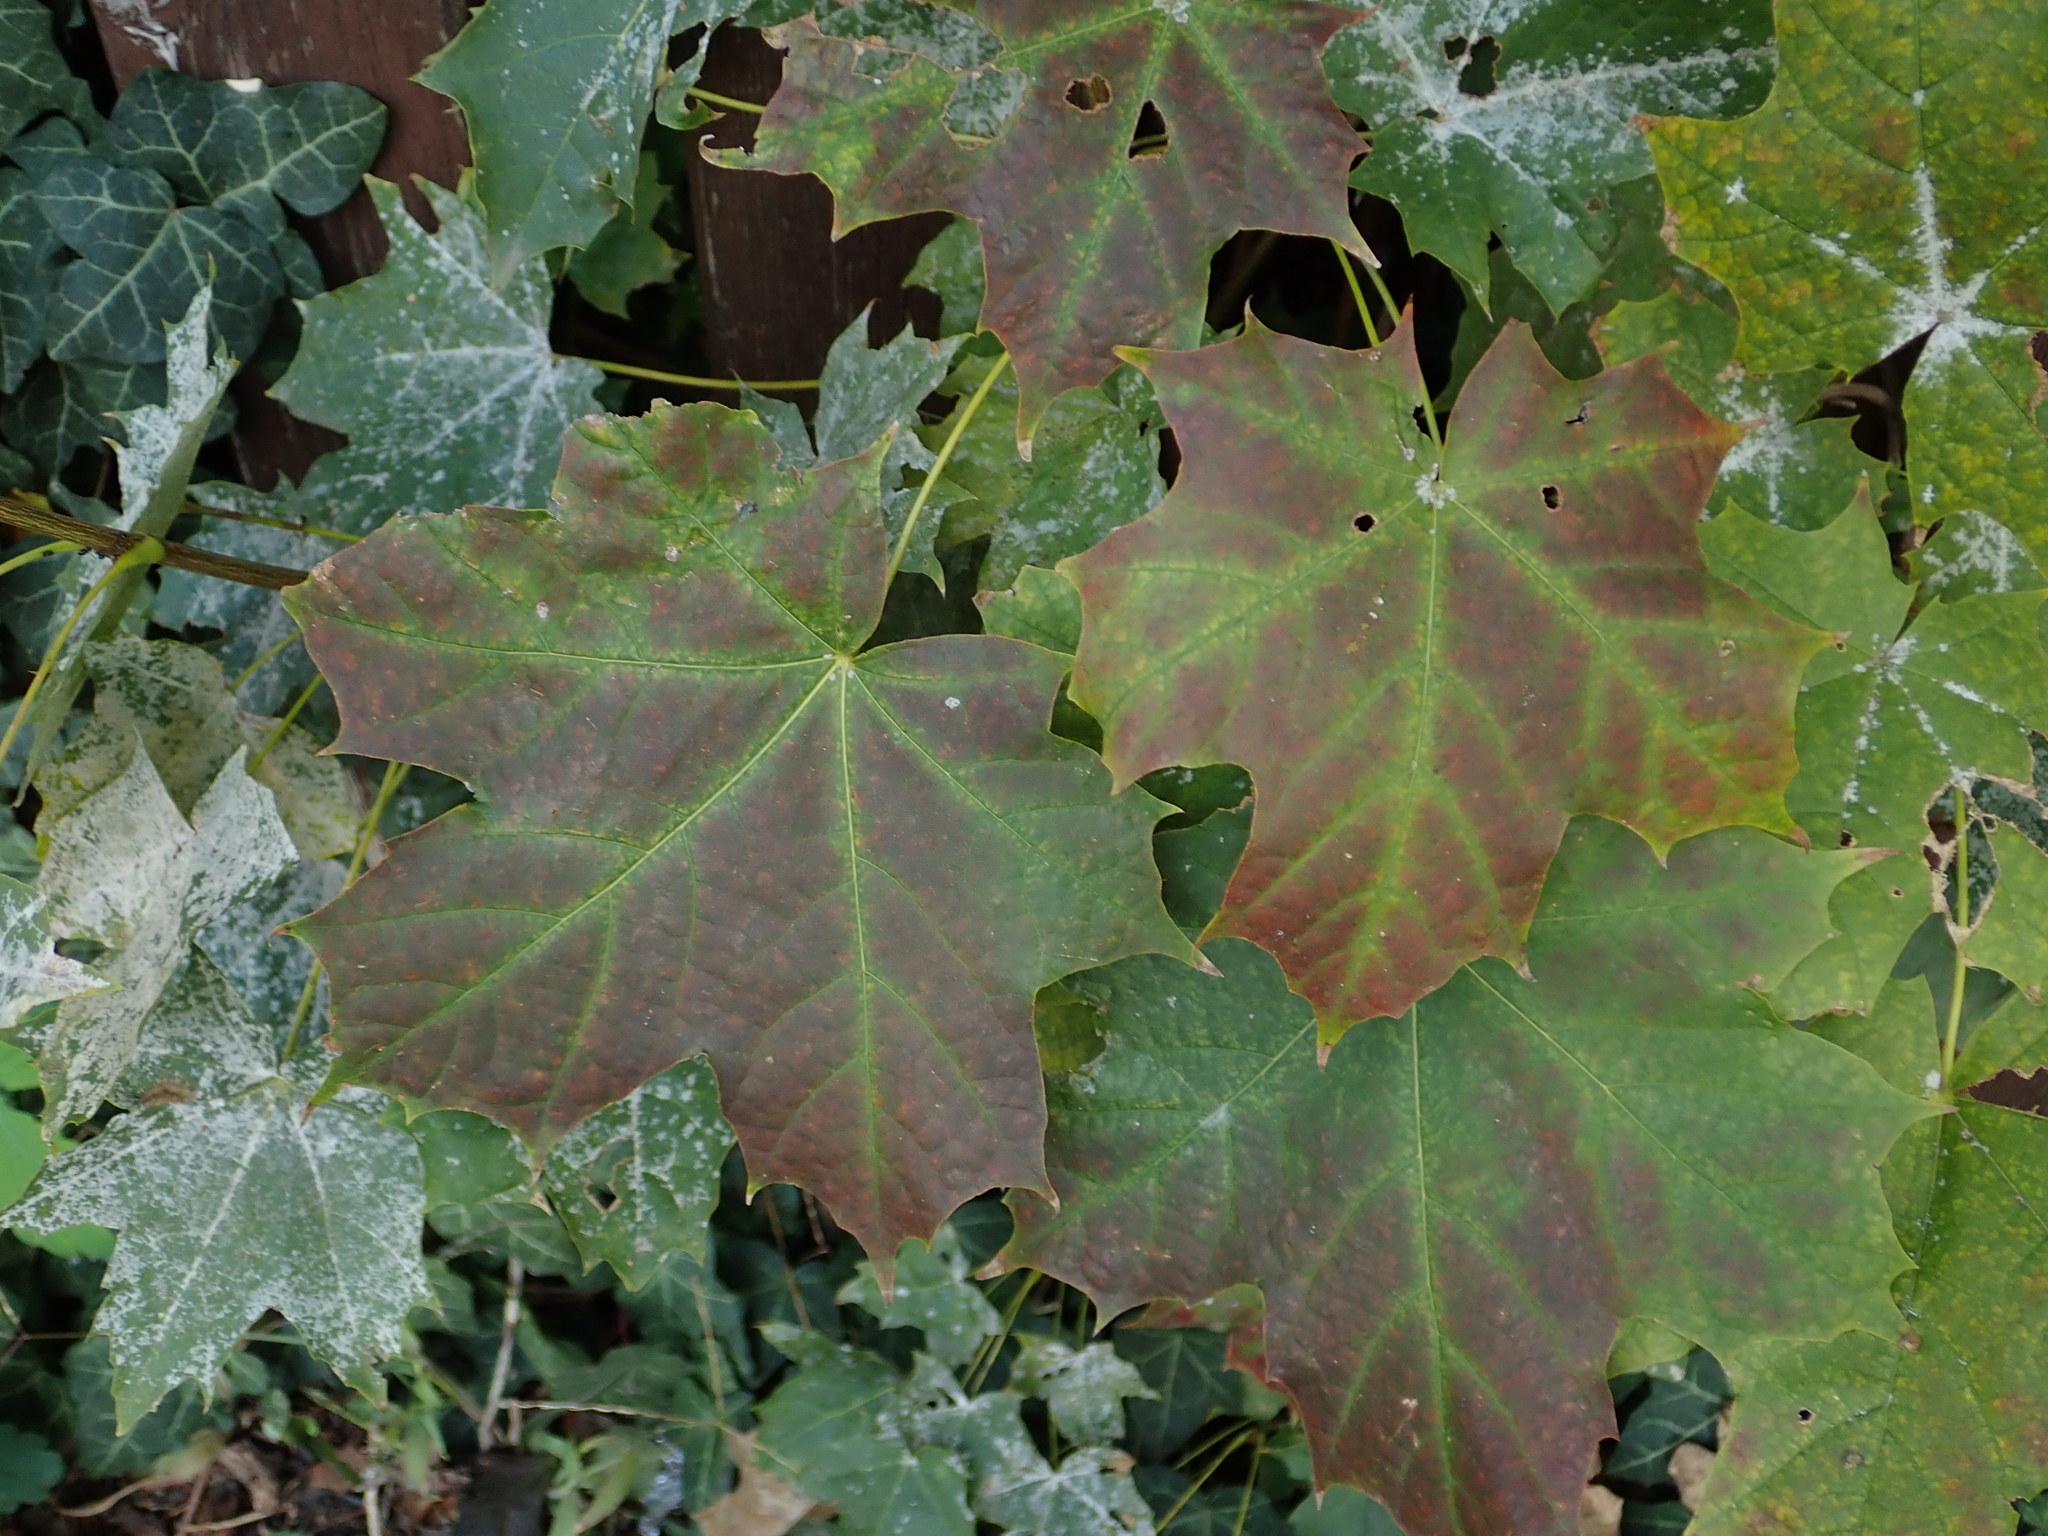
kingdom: Plantae
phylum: Tracheophyta
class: Magnoliopsida
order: Sapindales
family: Sapindaceae
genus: Acer
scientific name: Acer platanoides
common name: Norway maple
